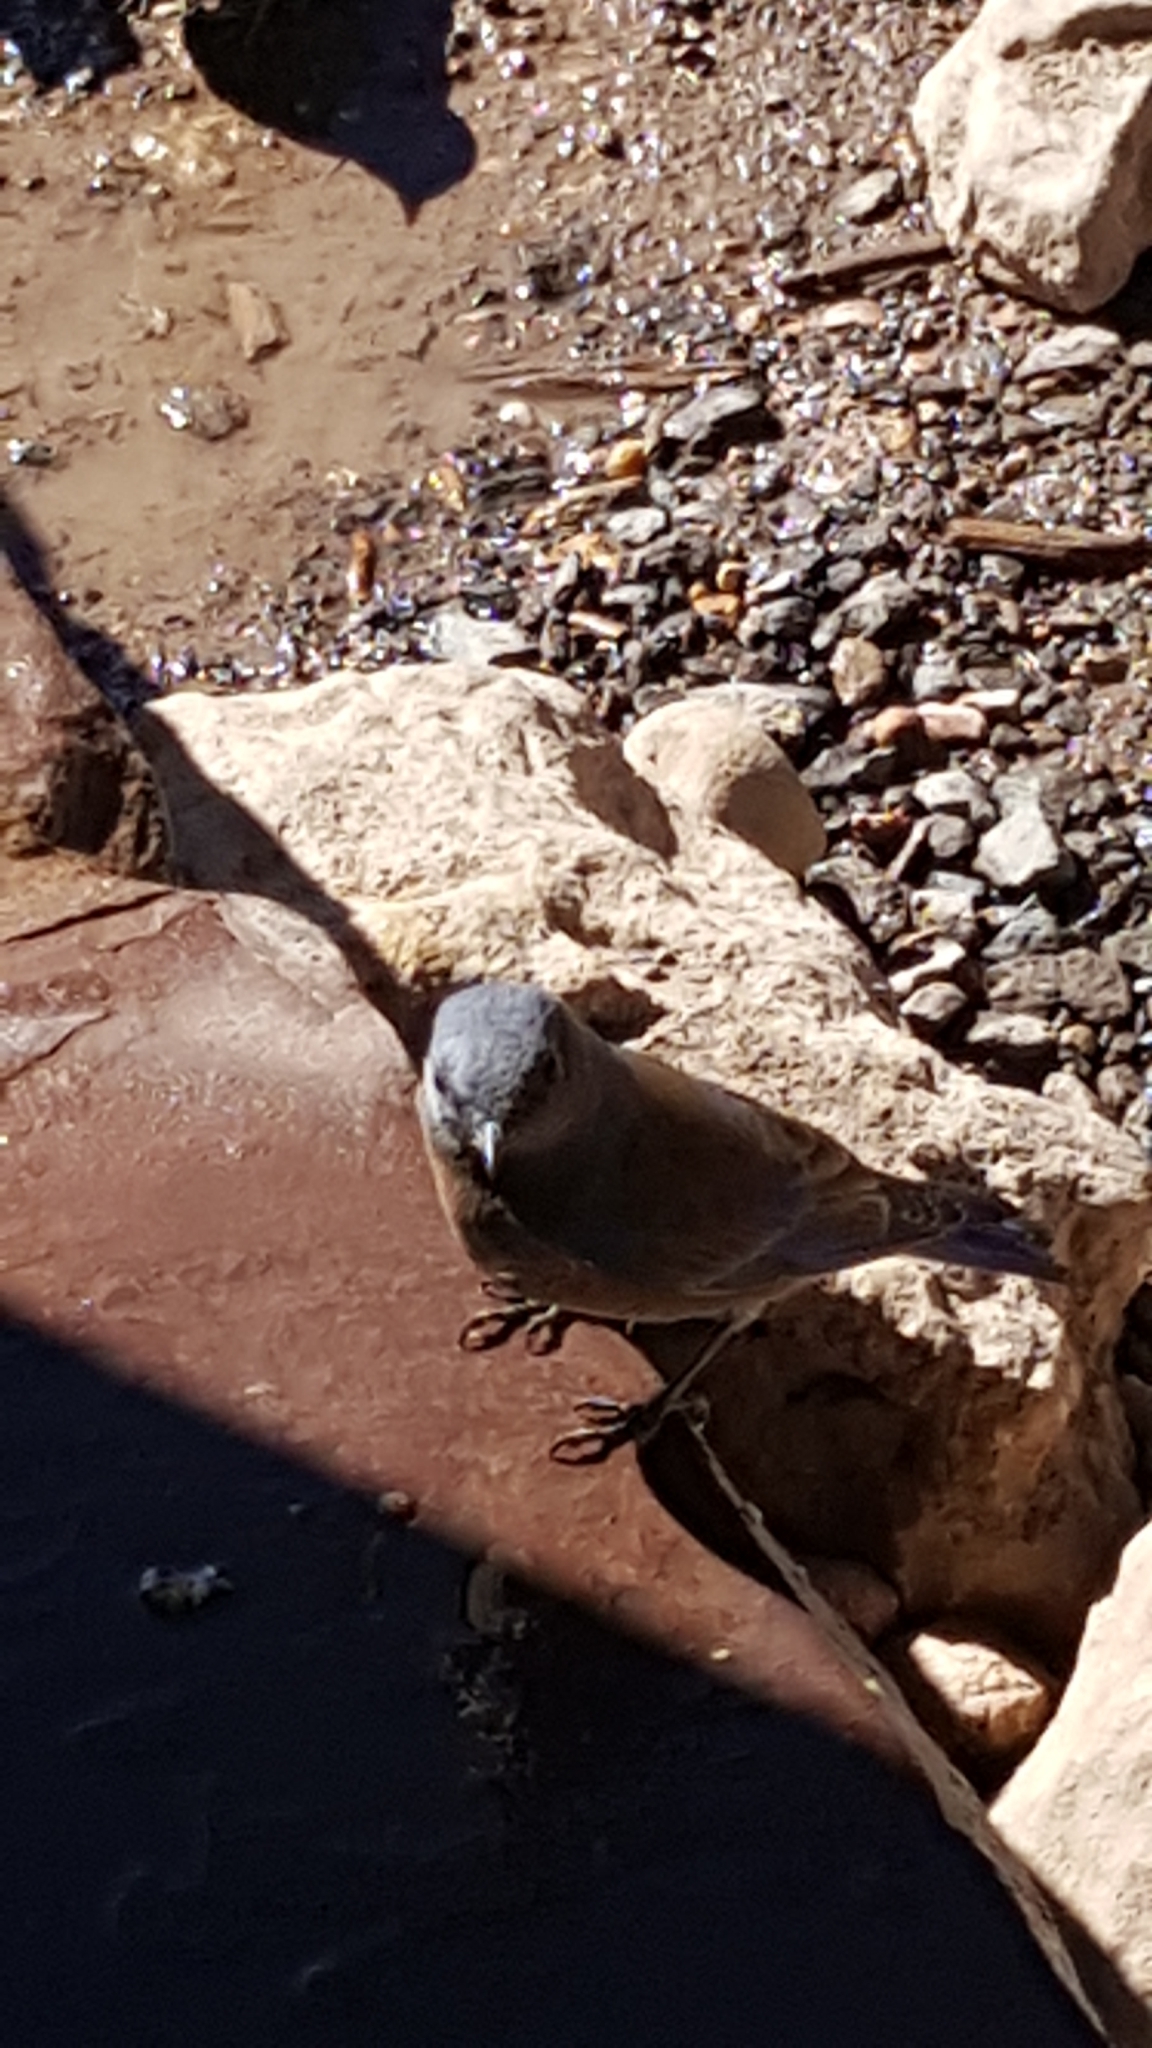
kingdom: Animalia
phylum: Chordata
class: Aves
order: Passeriformes
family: Turdidae
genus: Sialia
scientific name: Sialia mexicana
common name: Western bluebird
